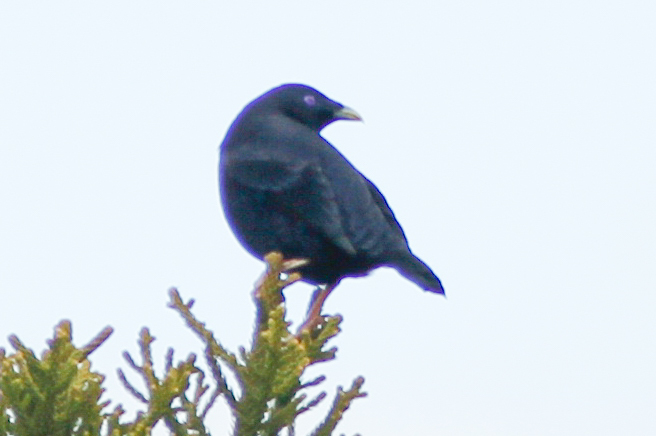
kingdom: Animalia
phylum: Chordata
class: Aves
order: Passeriformes
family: Ptilonorhynchidae
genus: Ptilonorhynchus
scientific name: Ptilonorhynchus violaceus
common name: Satin bowerbird
